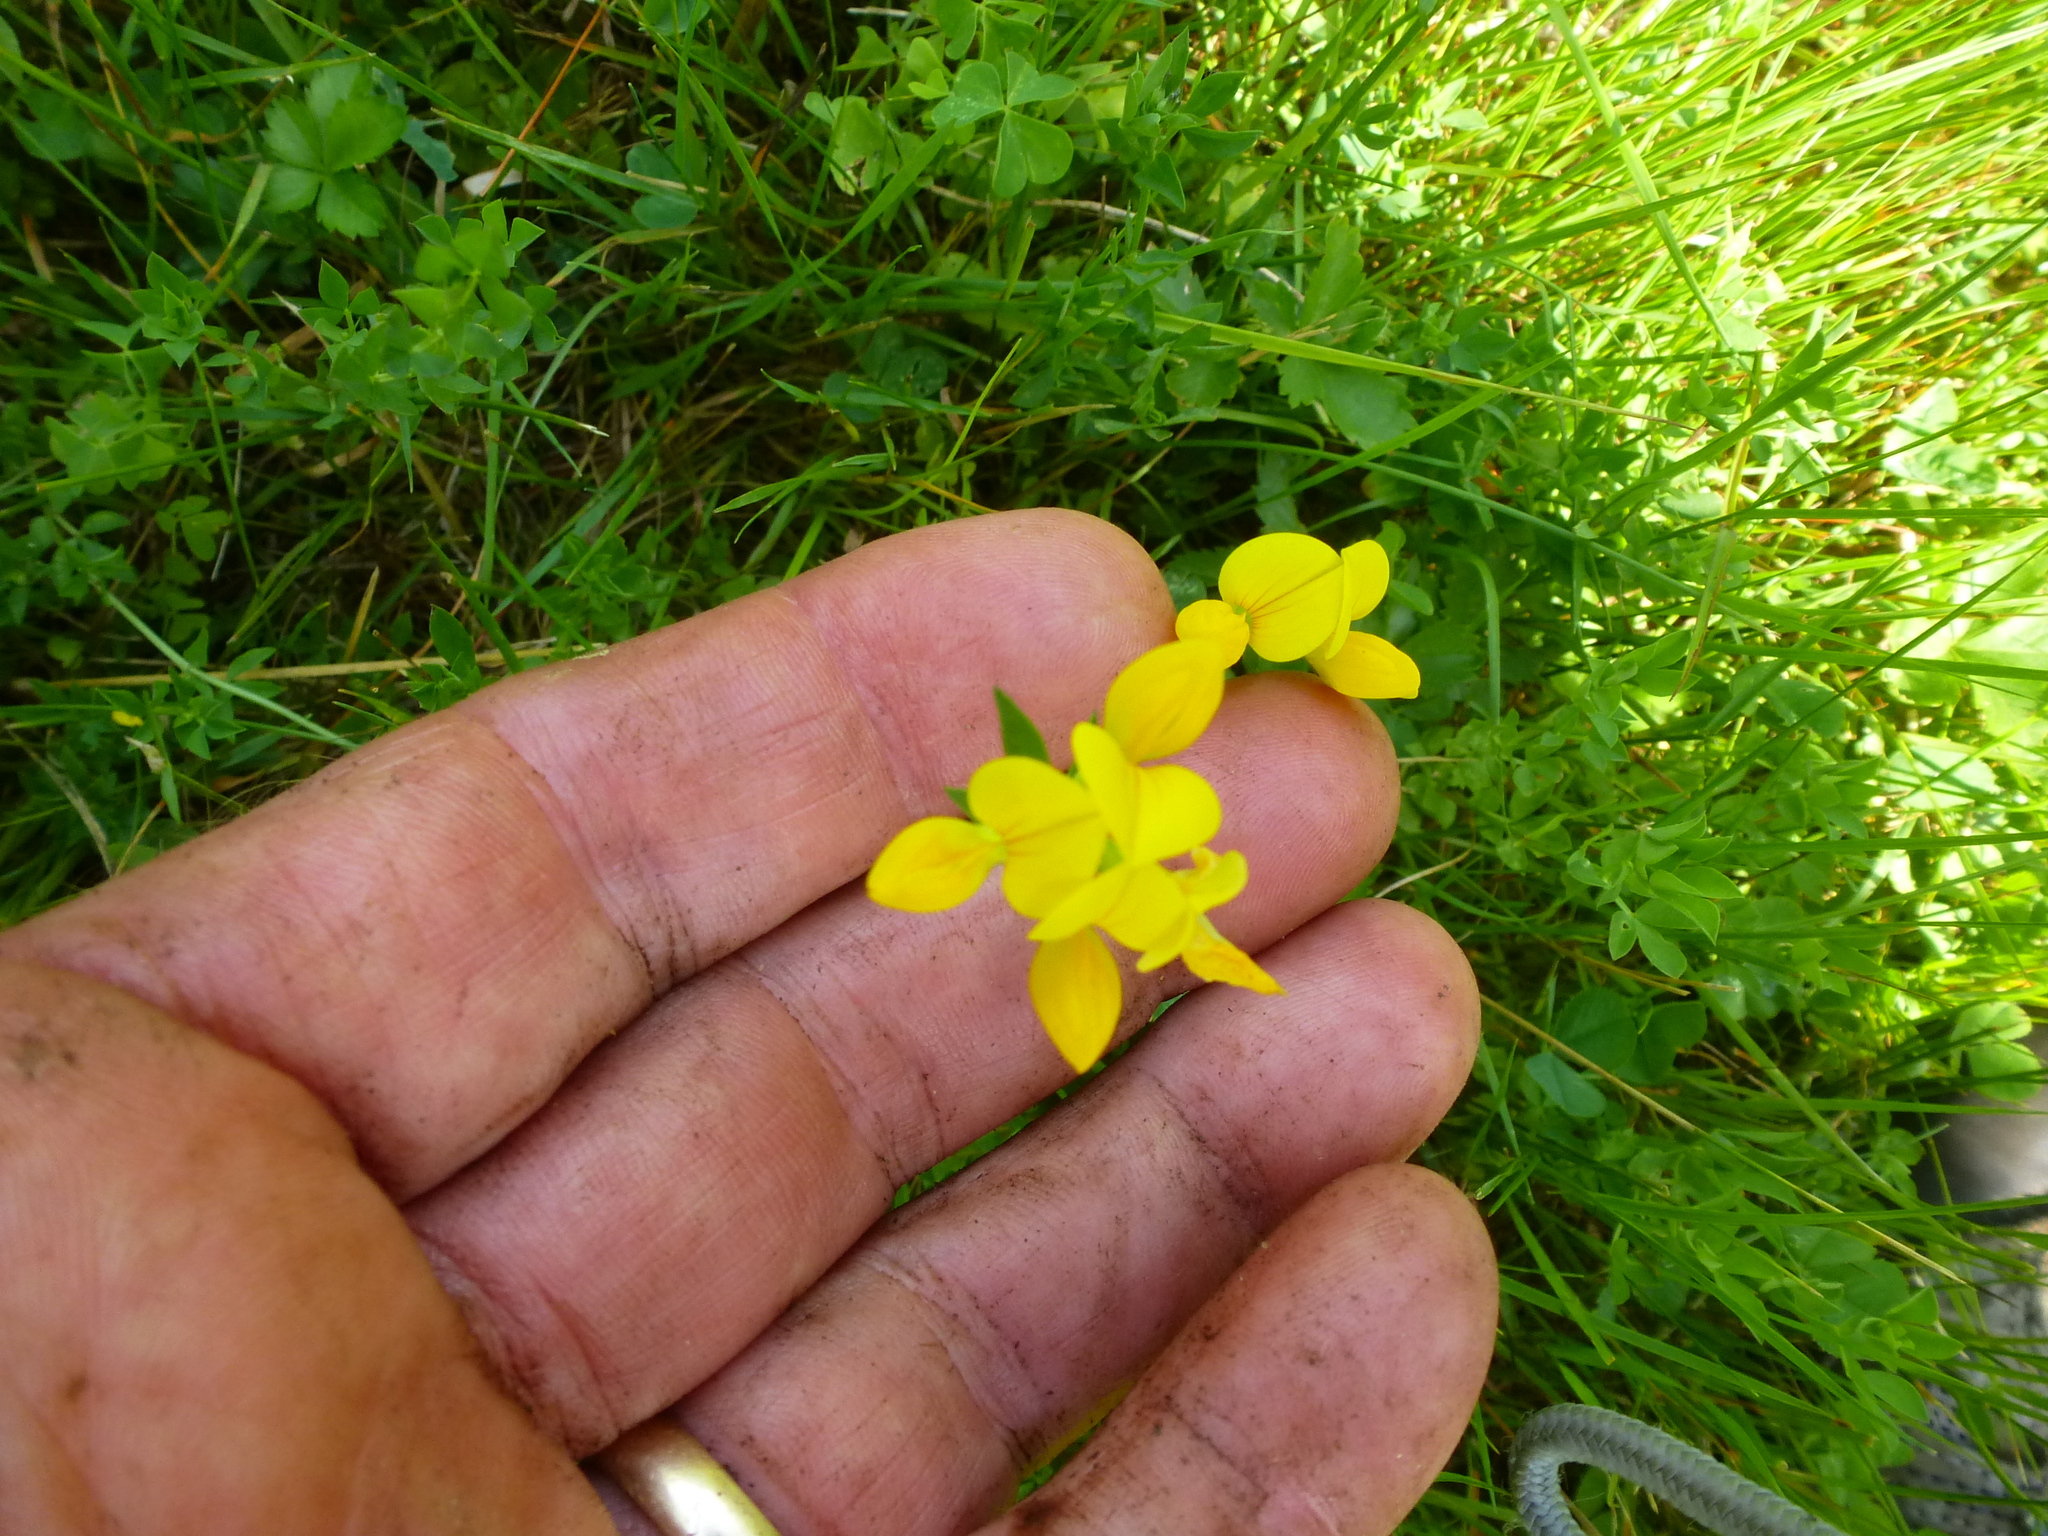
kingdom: Plantae
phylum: Tracheophyta
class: Magnoliopsida
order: Fabales
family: Fabaceae
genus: Lotus
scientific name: Lotus corniculatus
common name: Common bird's-foot-trefoil
